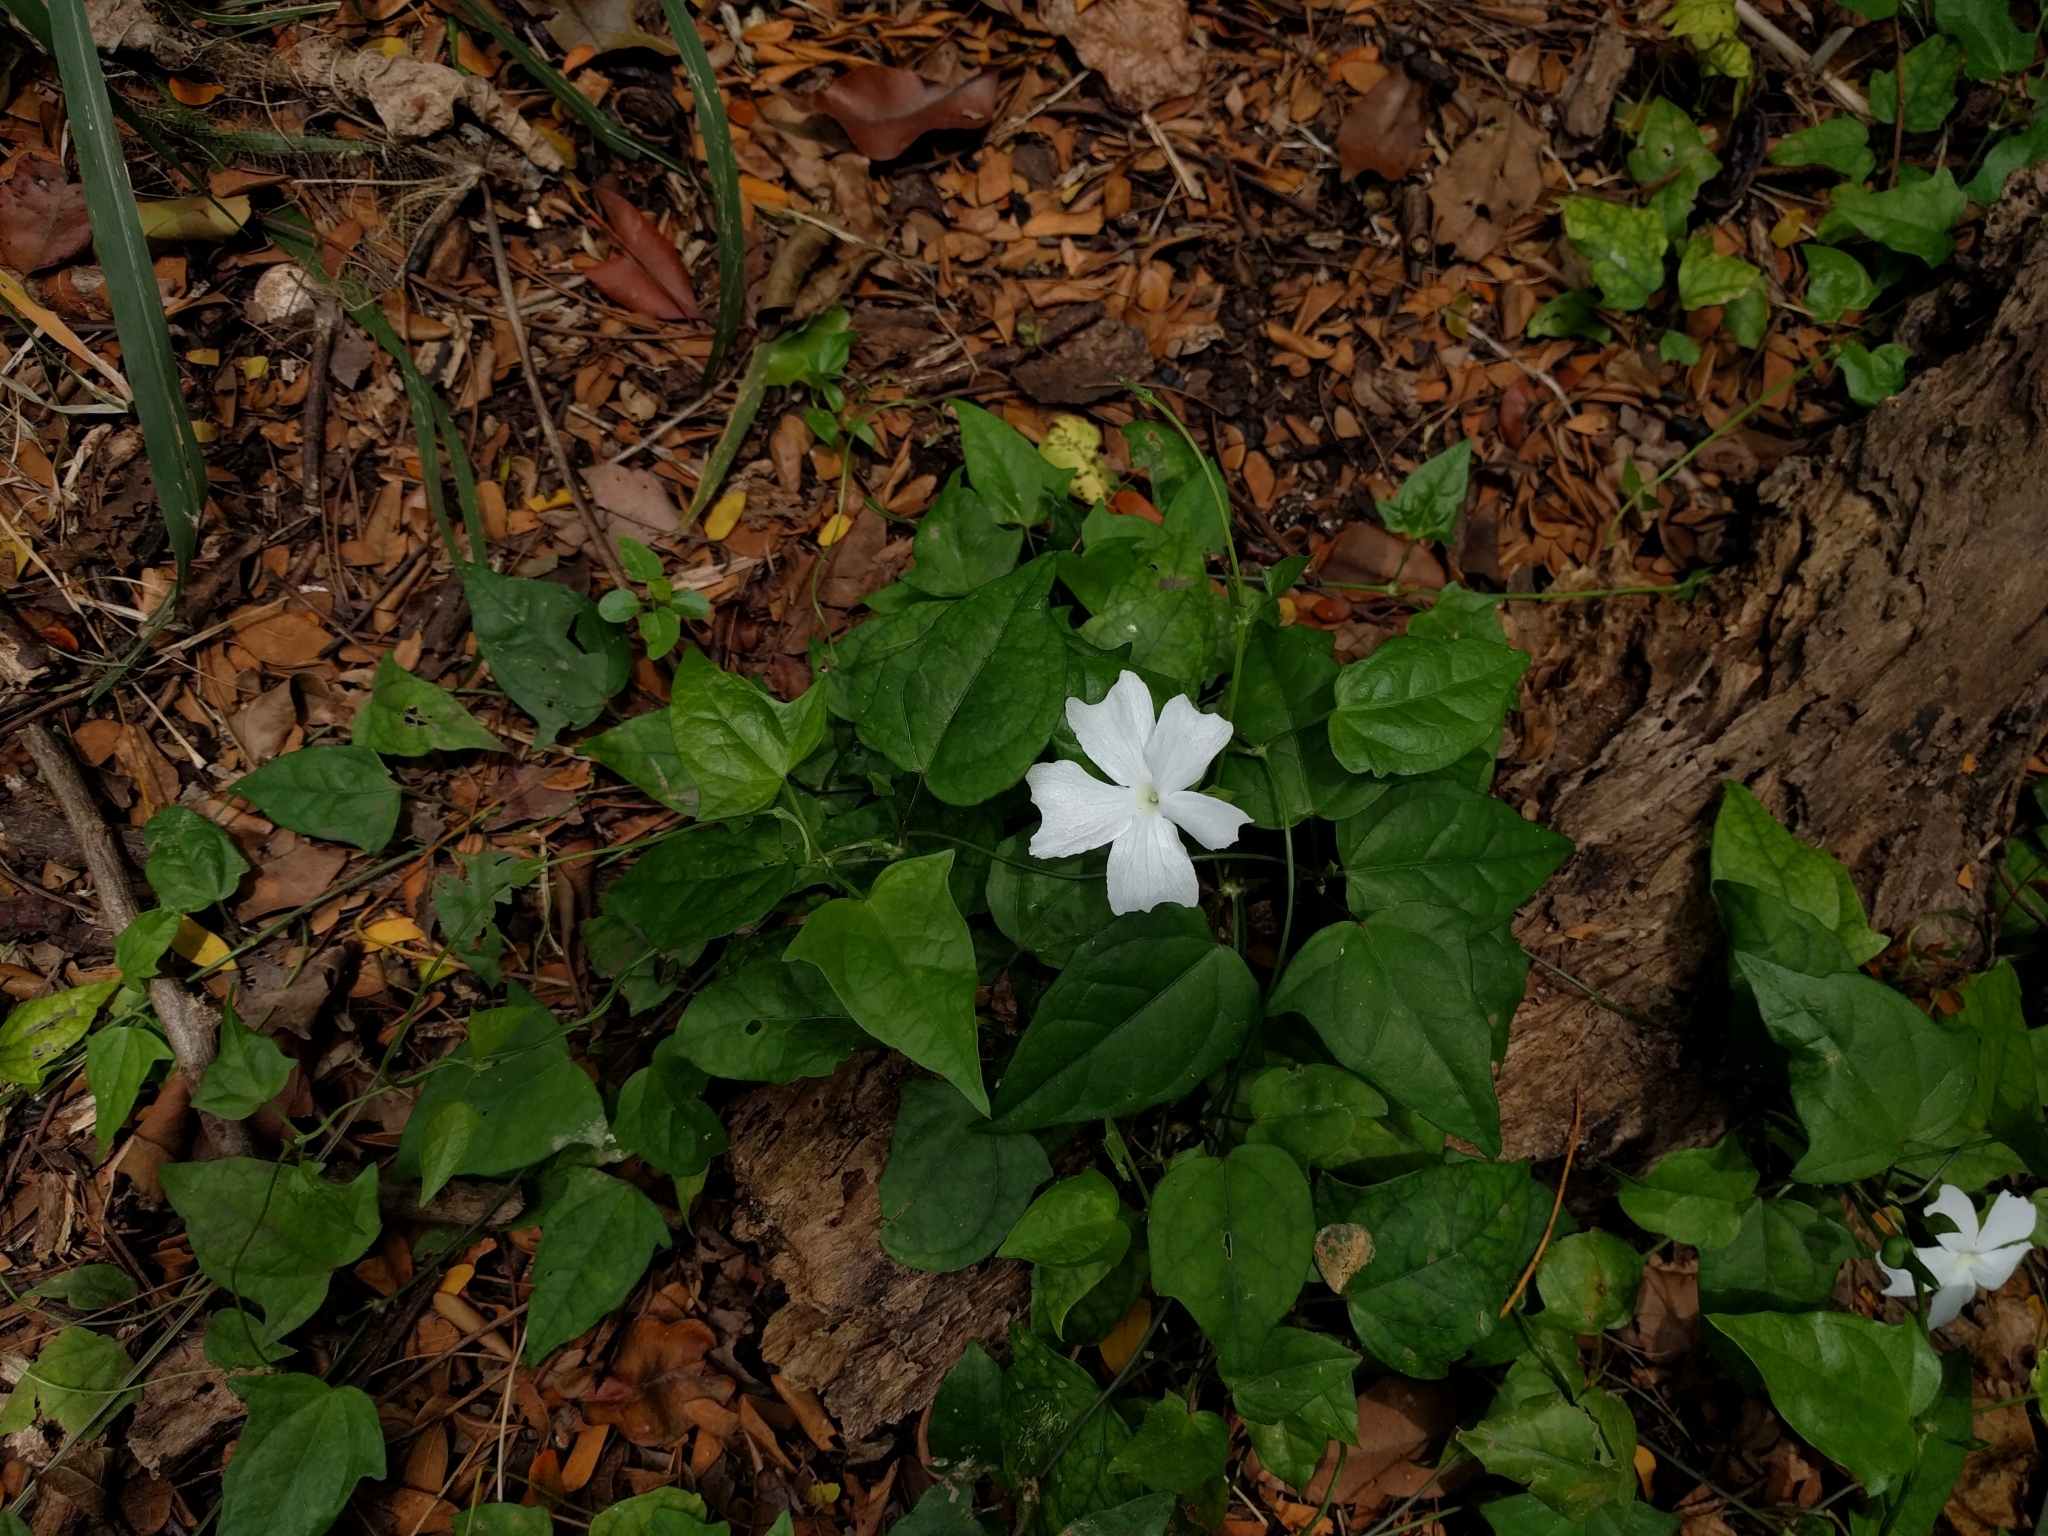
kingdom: Plantae
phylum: Tracheophyta
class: Magnoliopsida
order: Lamiales
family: Acanthaceae
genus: Thunbergia
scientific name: Thunbergia fragrans
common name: Whitelady
